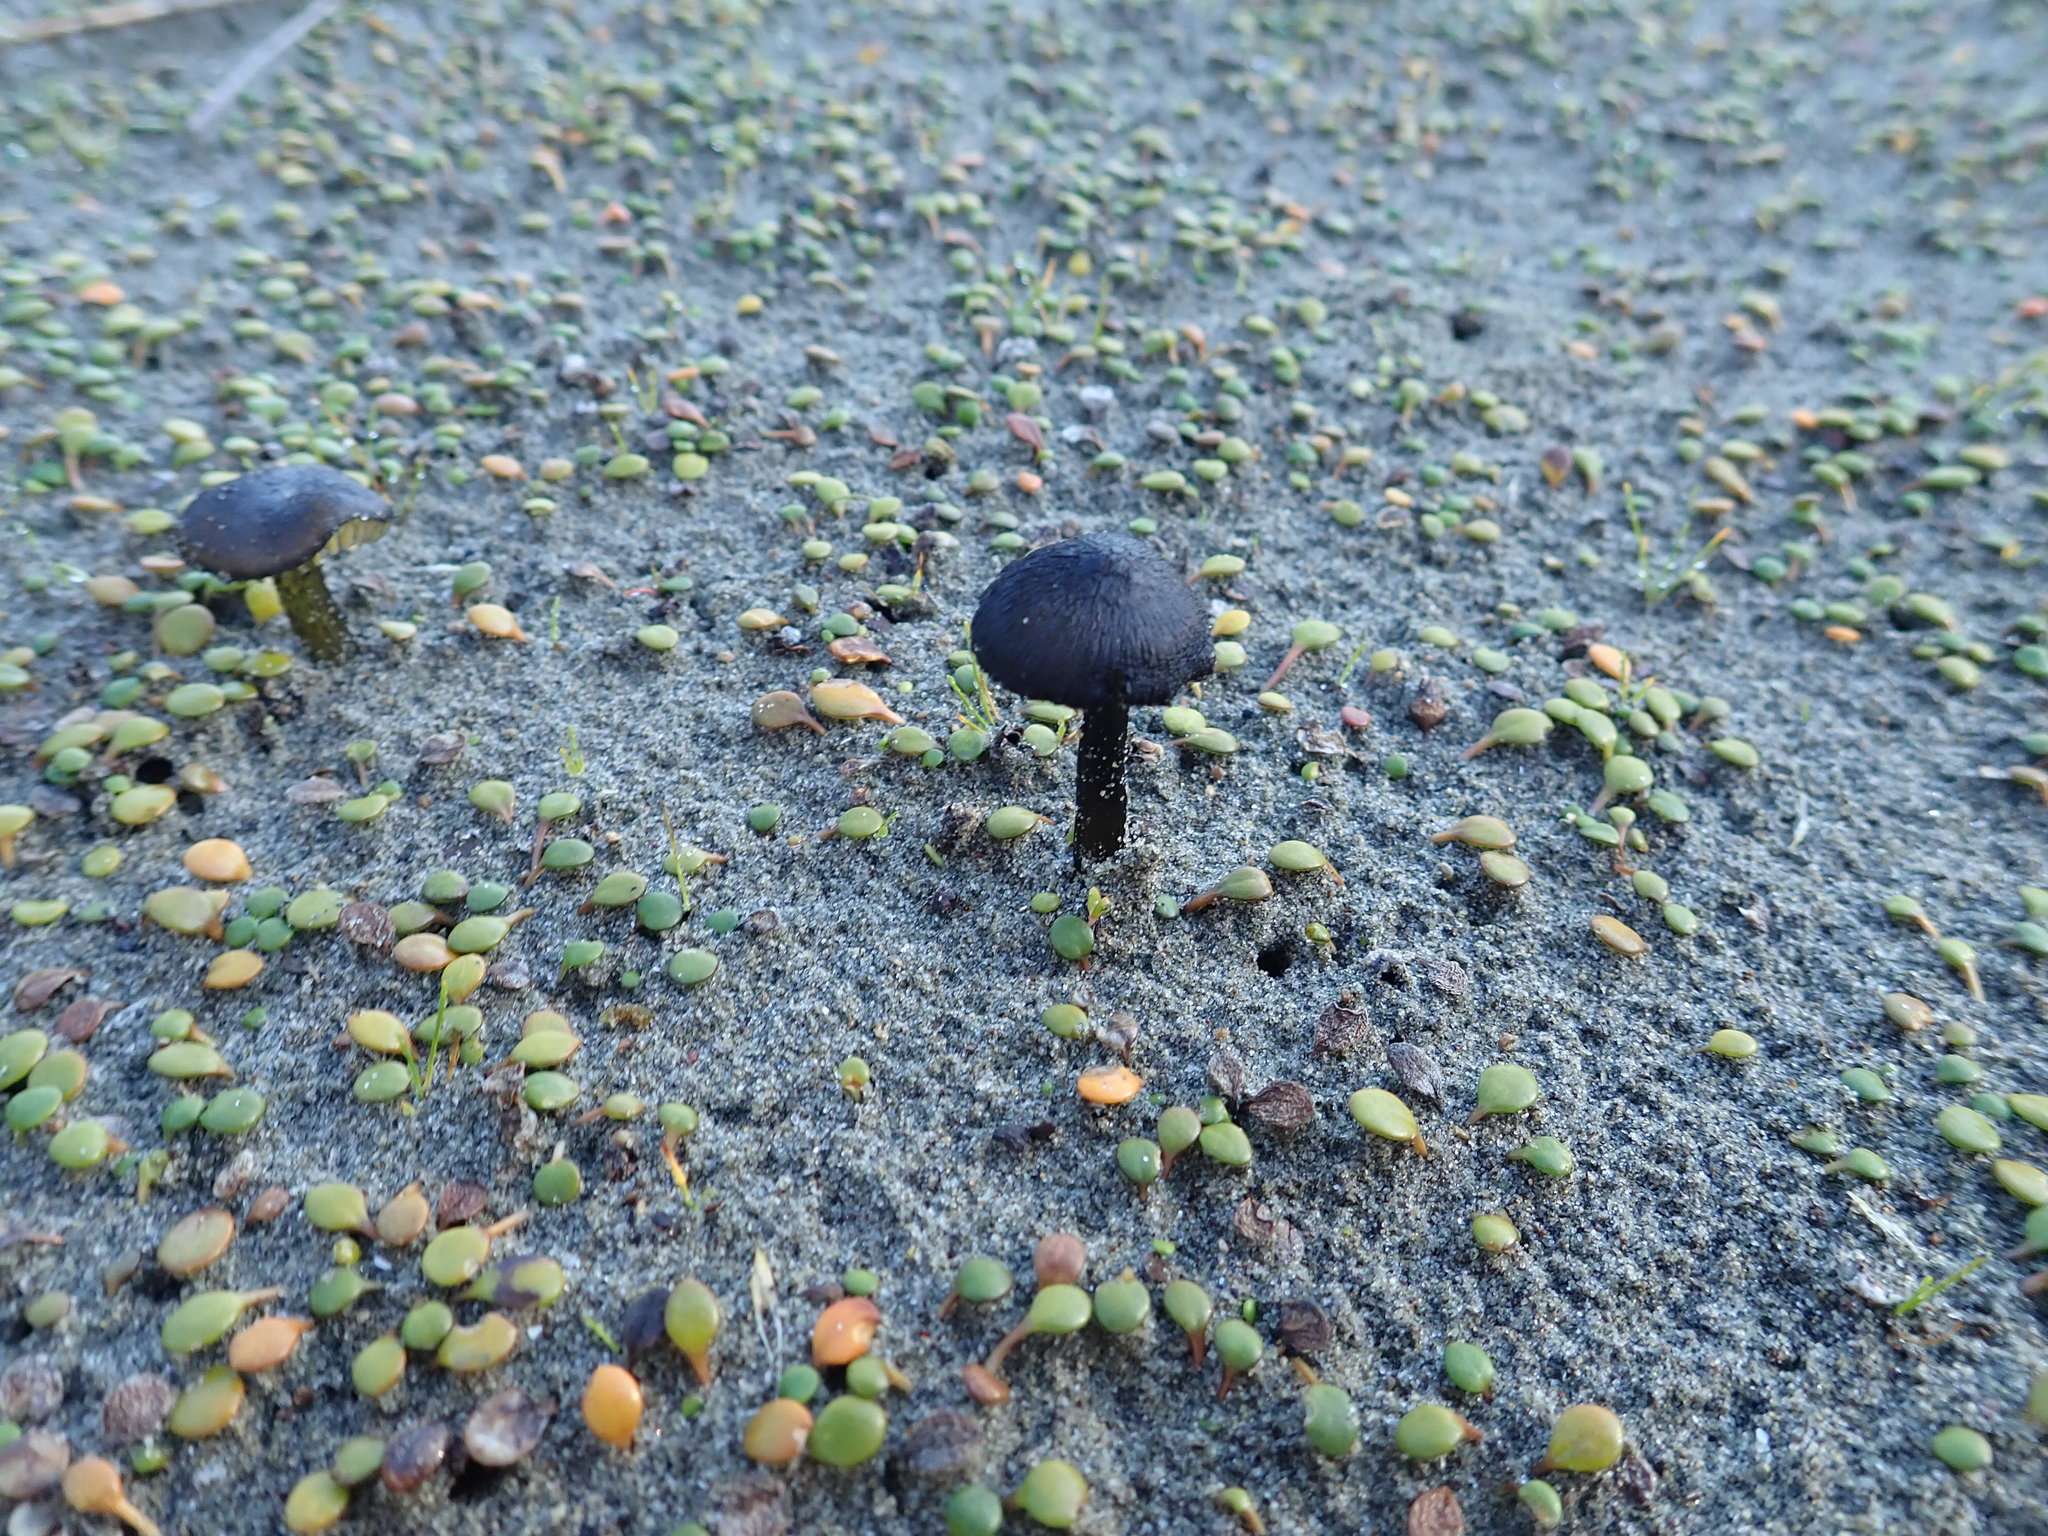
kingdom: Fungi
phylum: Basidiomycota
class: Agaricomycetes
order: Agaricales
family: Hygrophoraceae
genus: Hygrocybe
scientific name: Hygrocybe conica
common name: Blackening wax-cap
